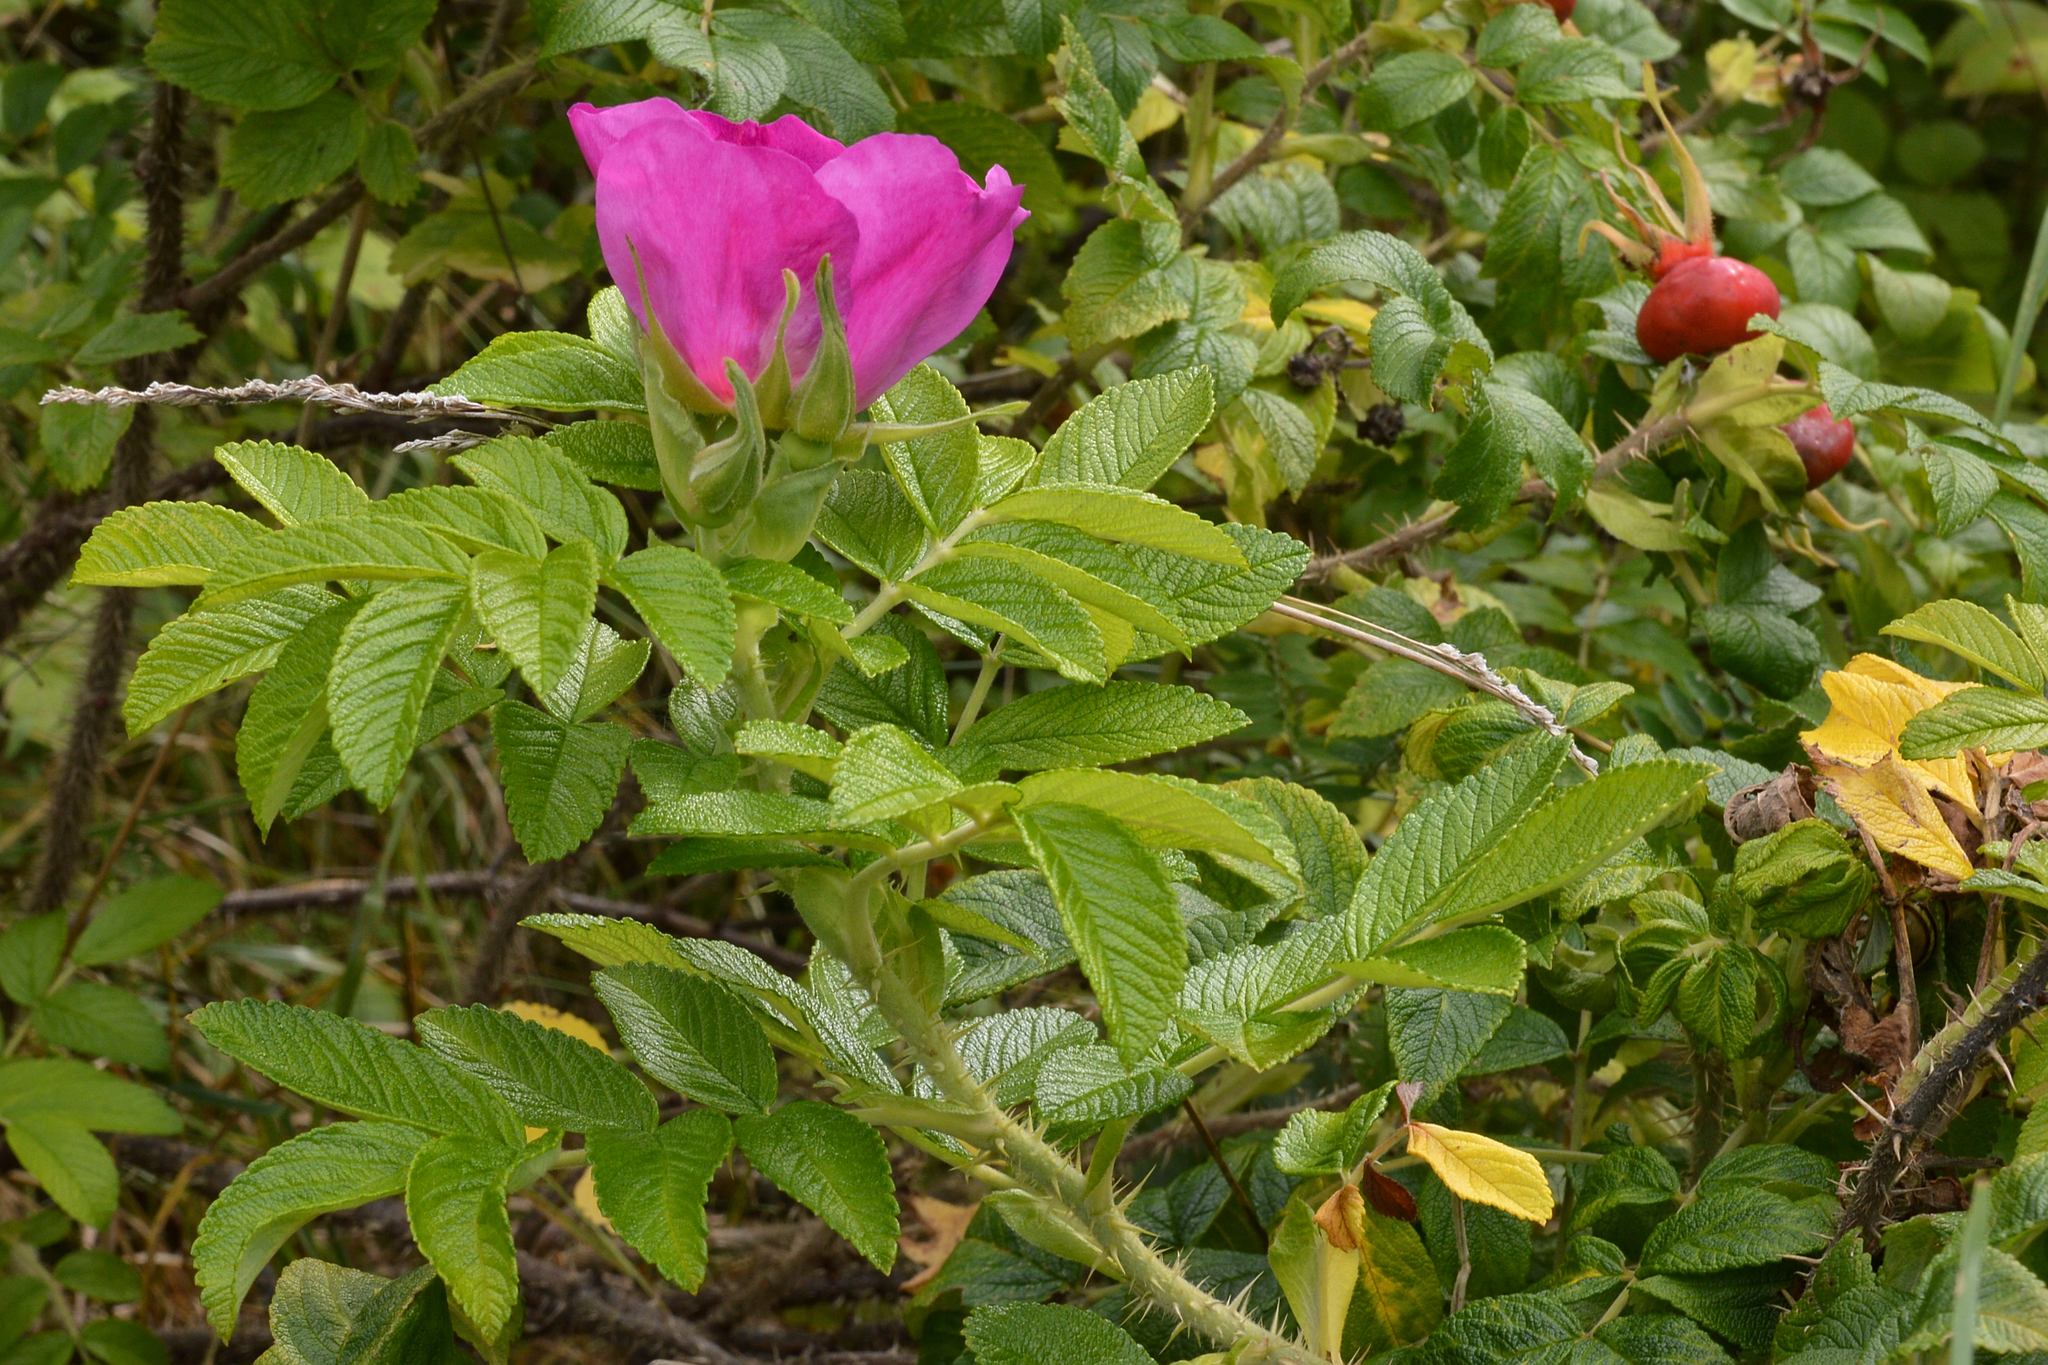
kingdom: Plantae
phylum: Tracheophyta
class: Magnoliopsida
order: Rosales
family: Rosaceae
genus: Rosa
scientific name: Rosa rugosa
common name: Japanese rose
